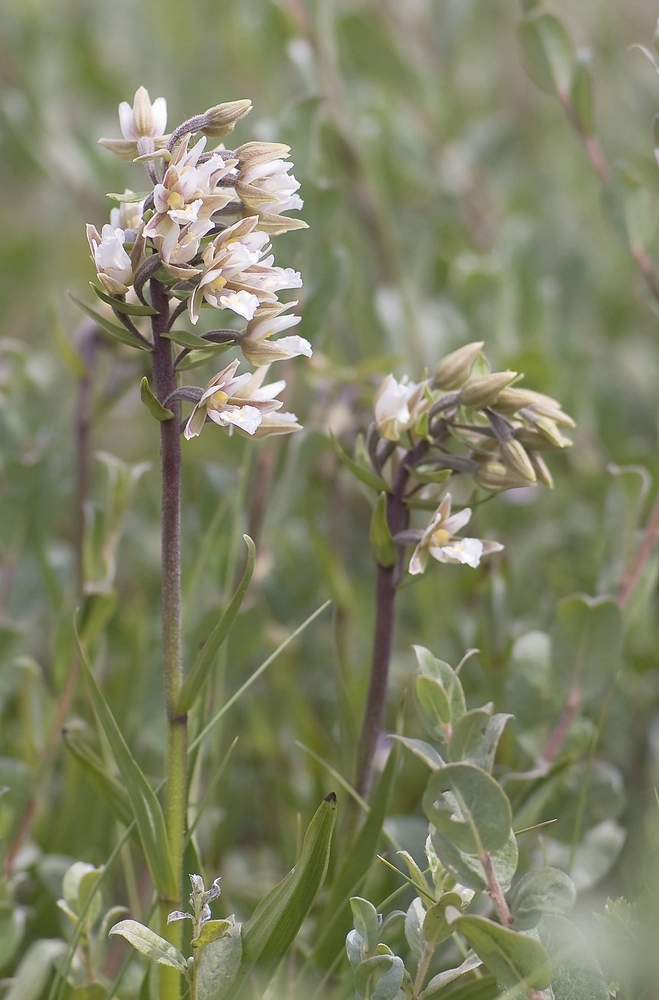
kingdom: Plantae
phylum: Tracheophyta
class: Liliopsida
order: Asparagales
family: Orchidaceae
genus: Epipactis
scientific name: Epipactis palustris
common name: Marsh helleborine
